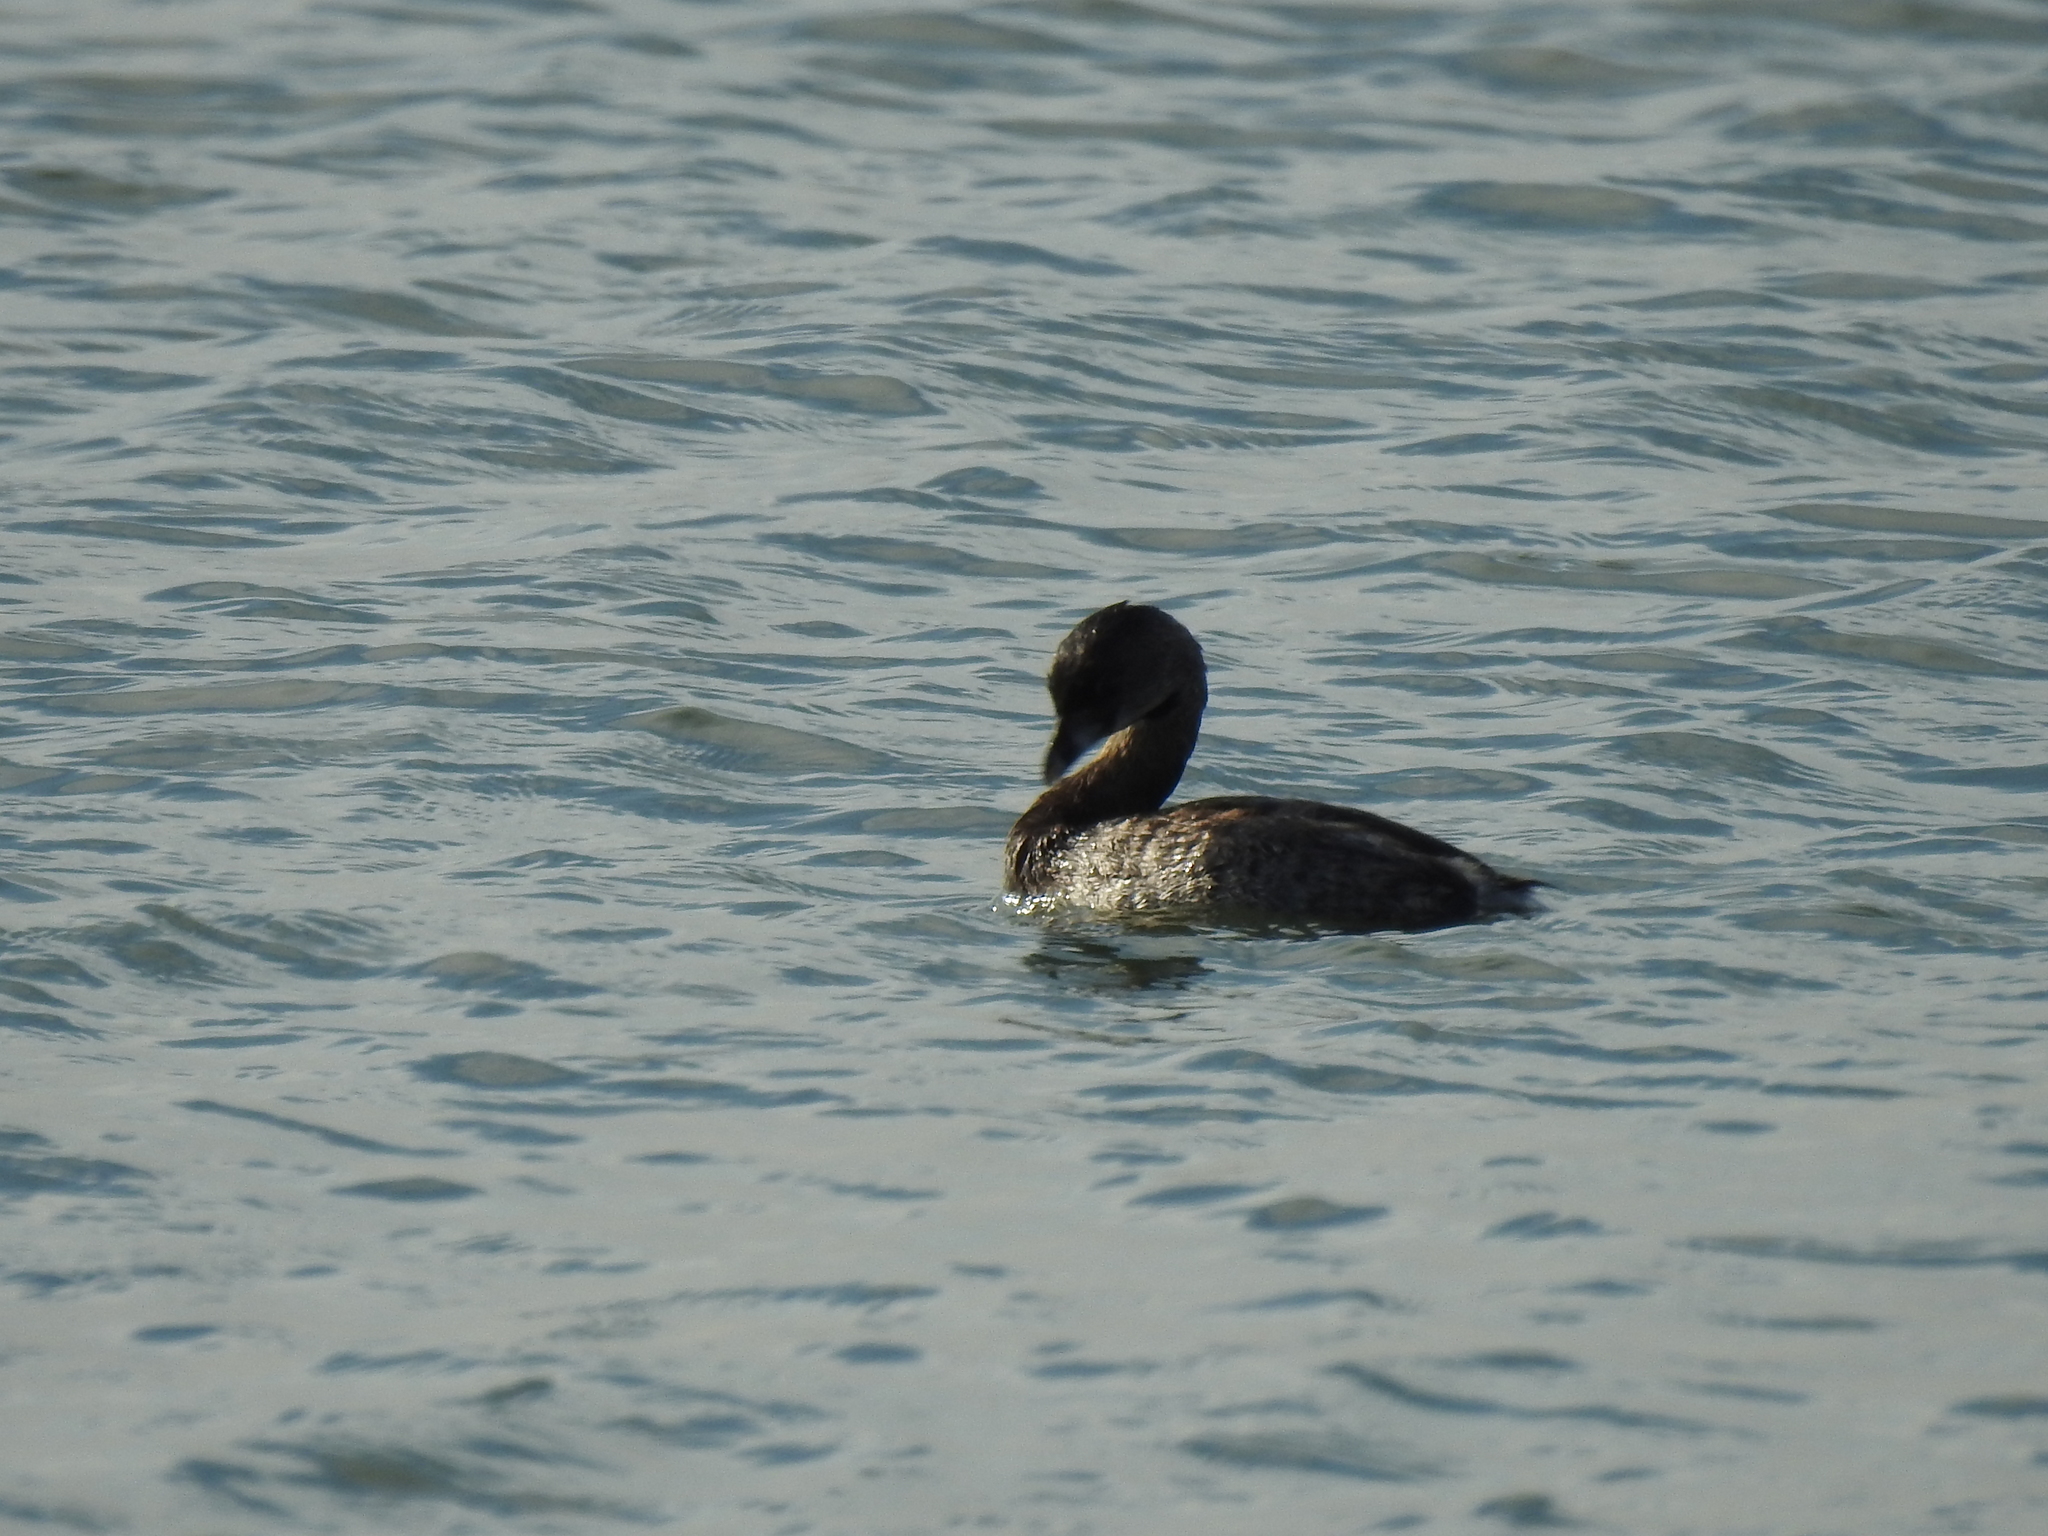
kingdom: Animalia
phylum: Chordata
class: Aves
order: Podicipediformes
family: Podicipedidae
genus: Podilymbus
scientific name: Podilymbus podiceps
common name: Pied-billed grebe
